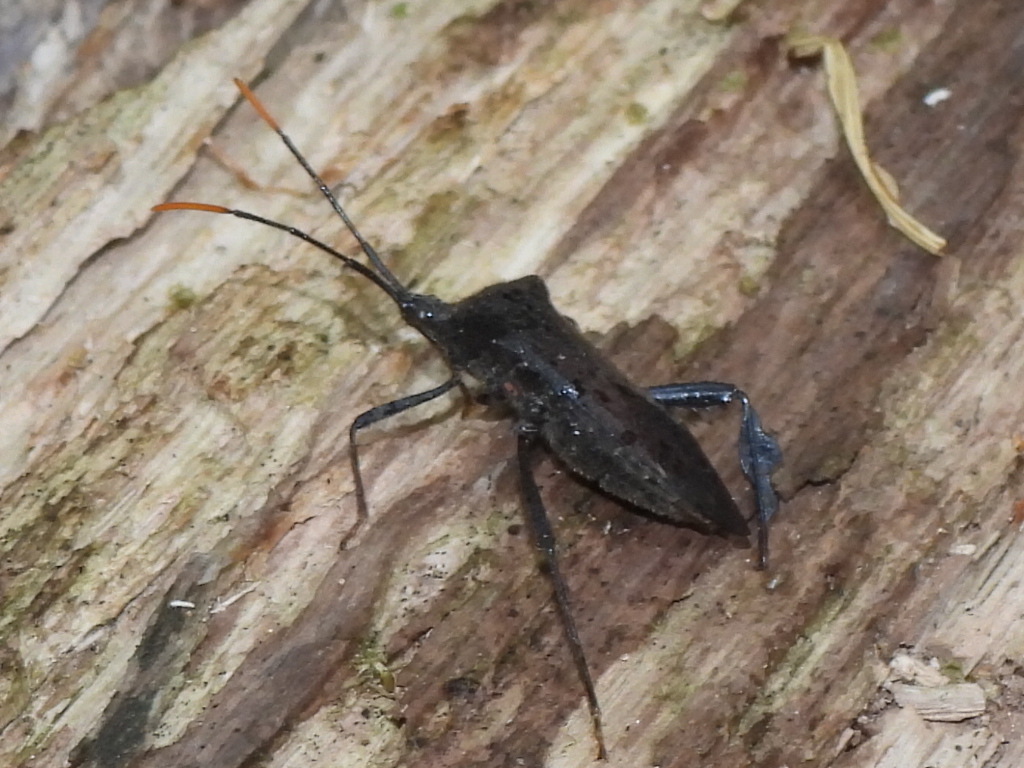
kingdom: Animalia
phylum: Arthropoda
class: Insecta
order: Hemiptera
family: Coreidae
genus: Acanthocephala
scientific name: Acanthocephala terminalis
